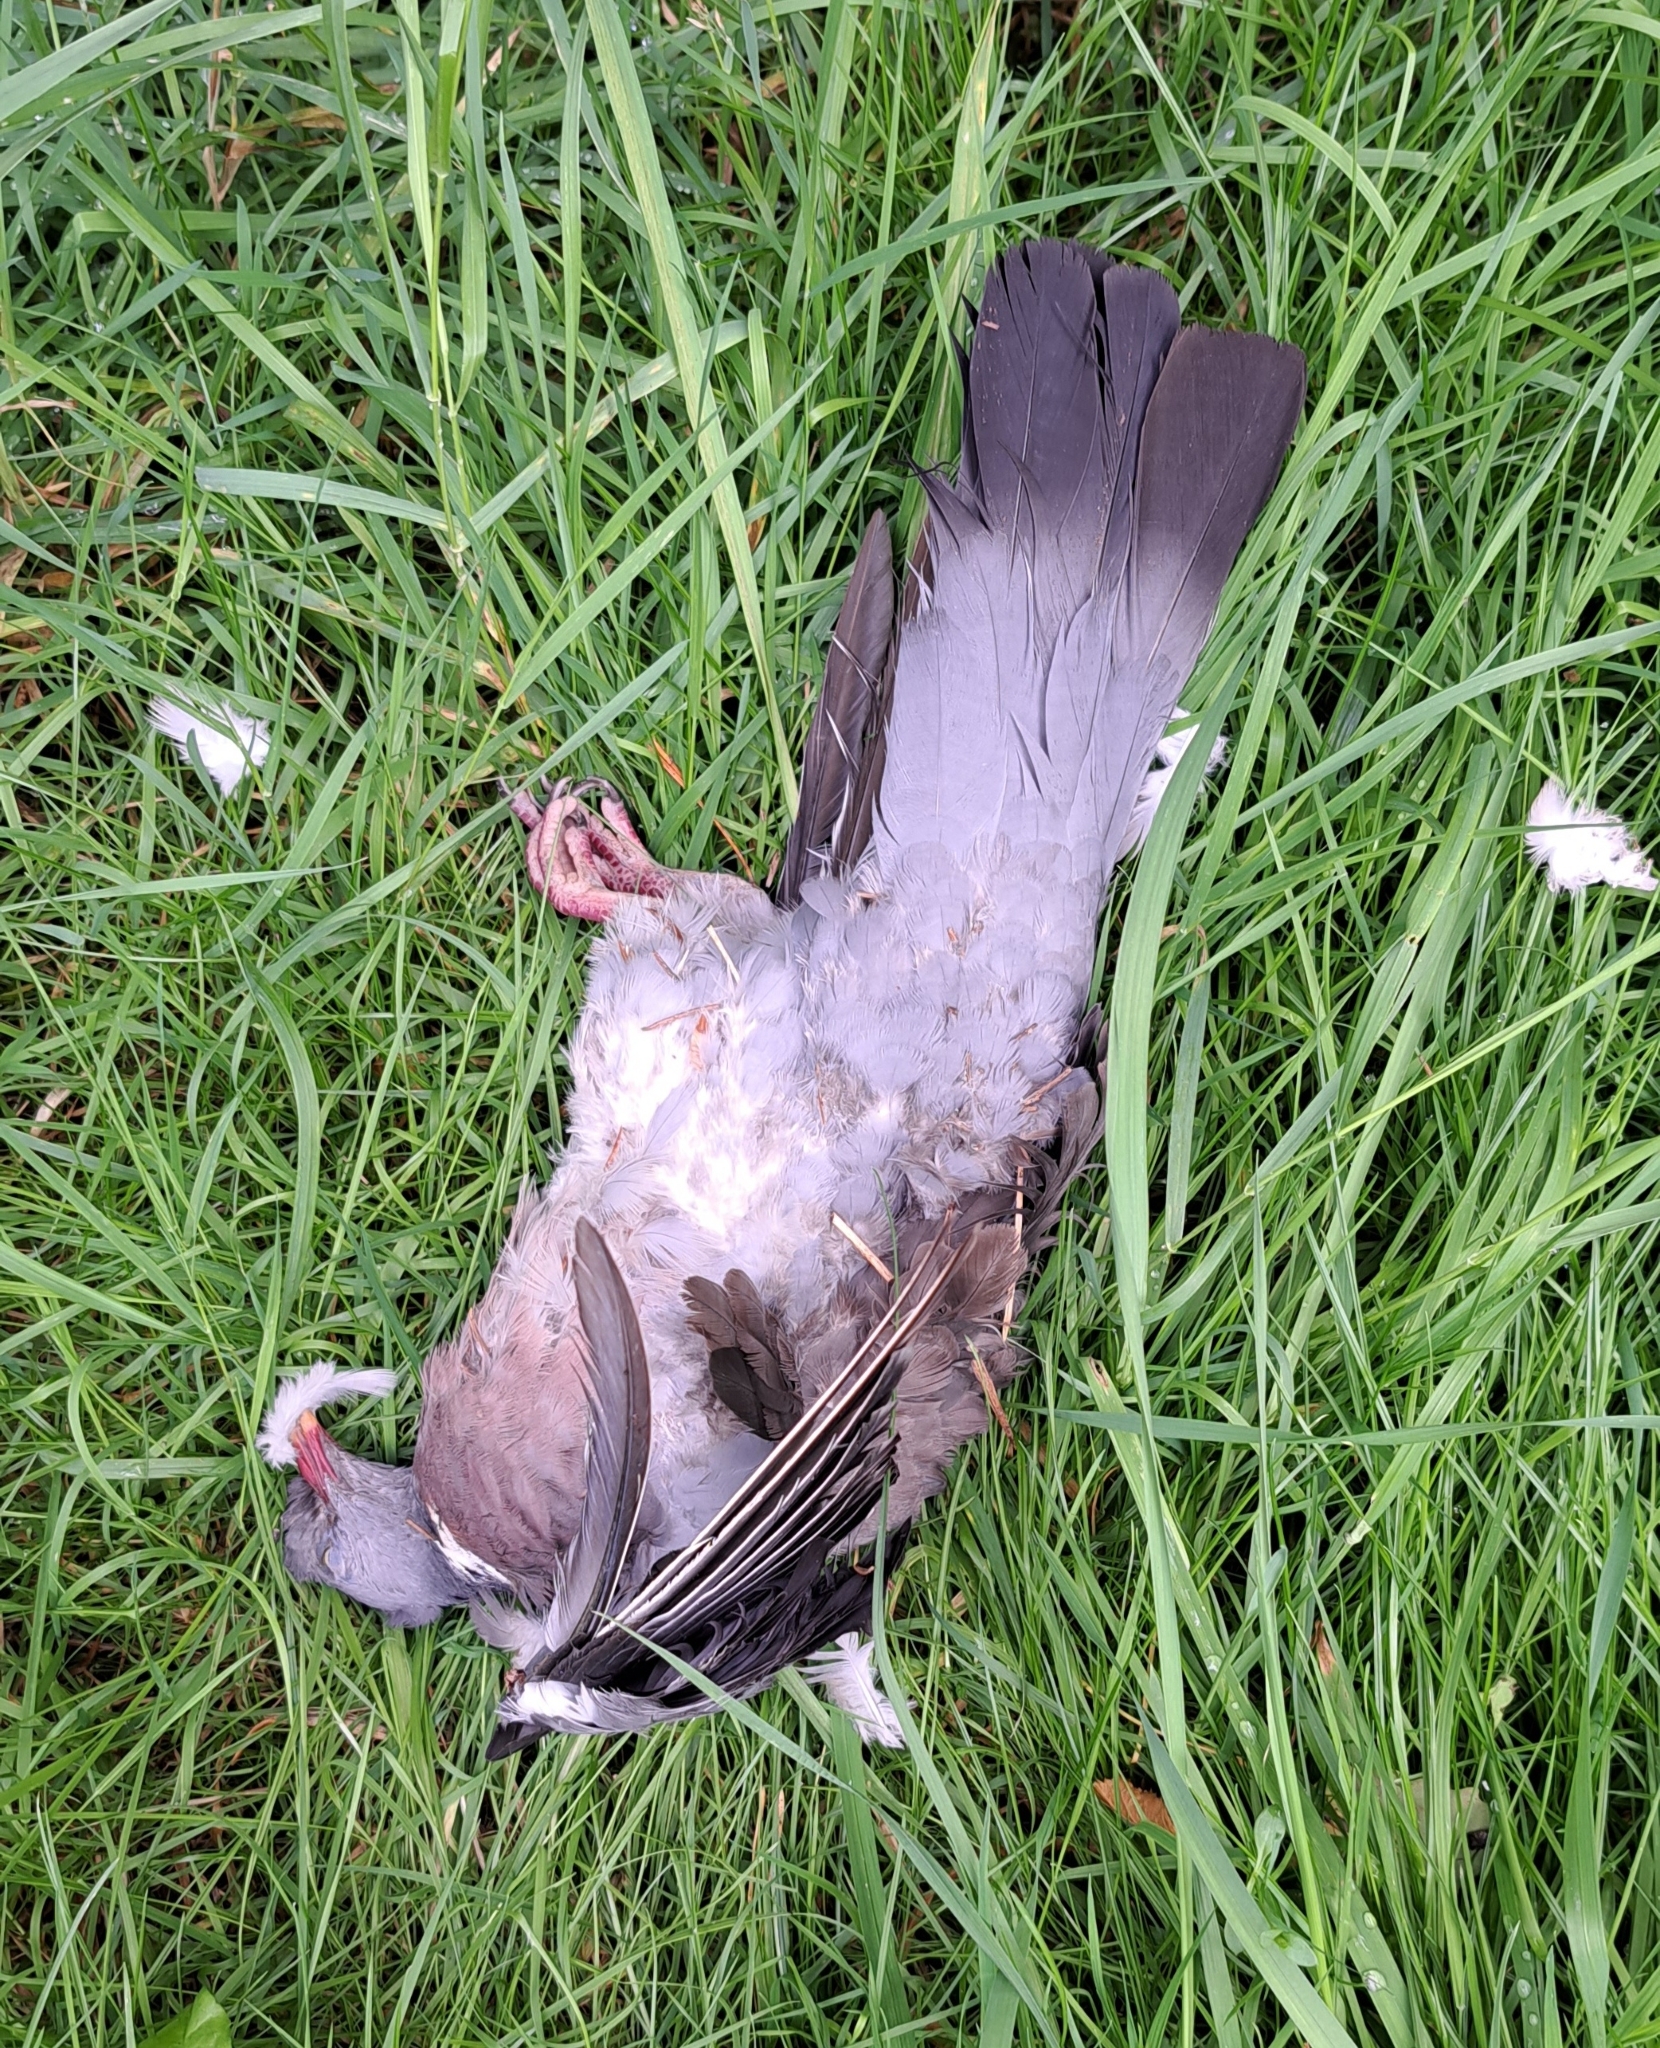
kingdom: Animalia
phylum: Chordata
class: Aves
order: Columbiformes
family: Columbidae
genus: Columba
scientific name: Columba palumbus
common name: Common wood pigeon
